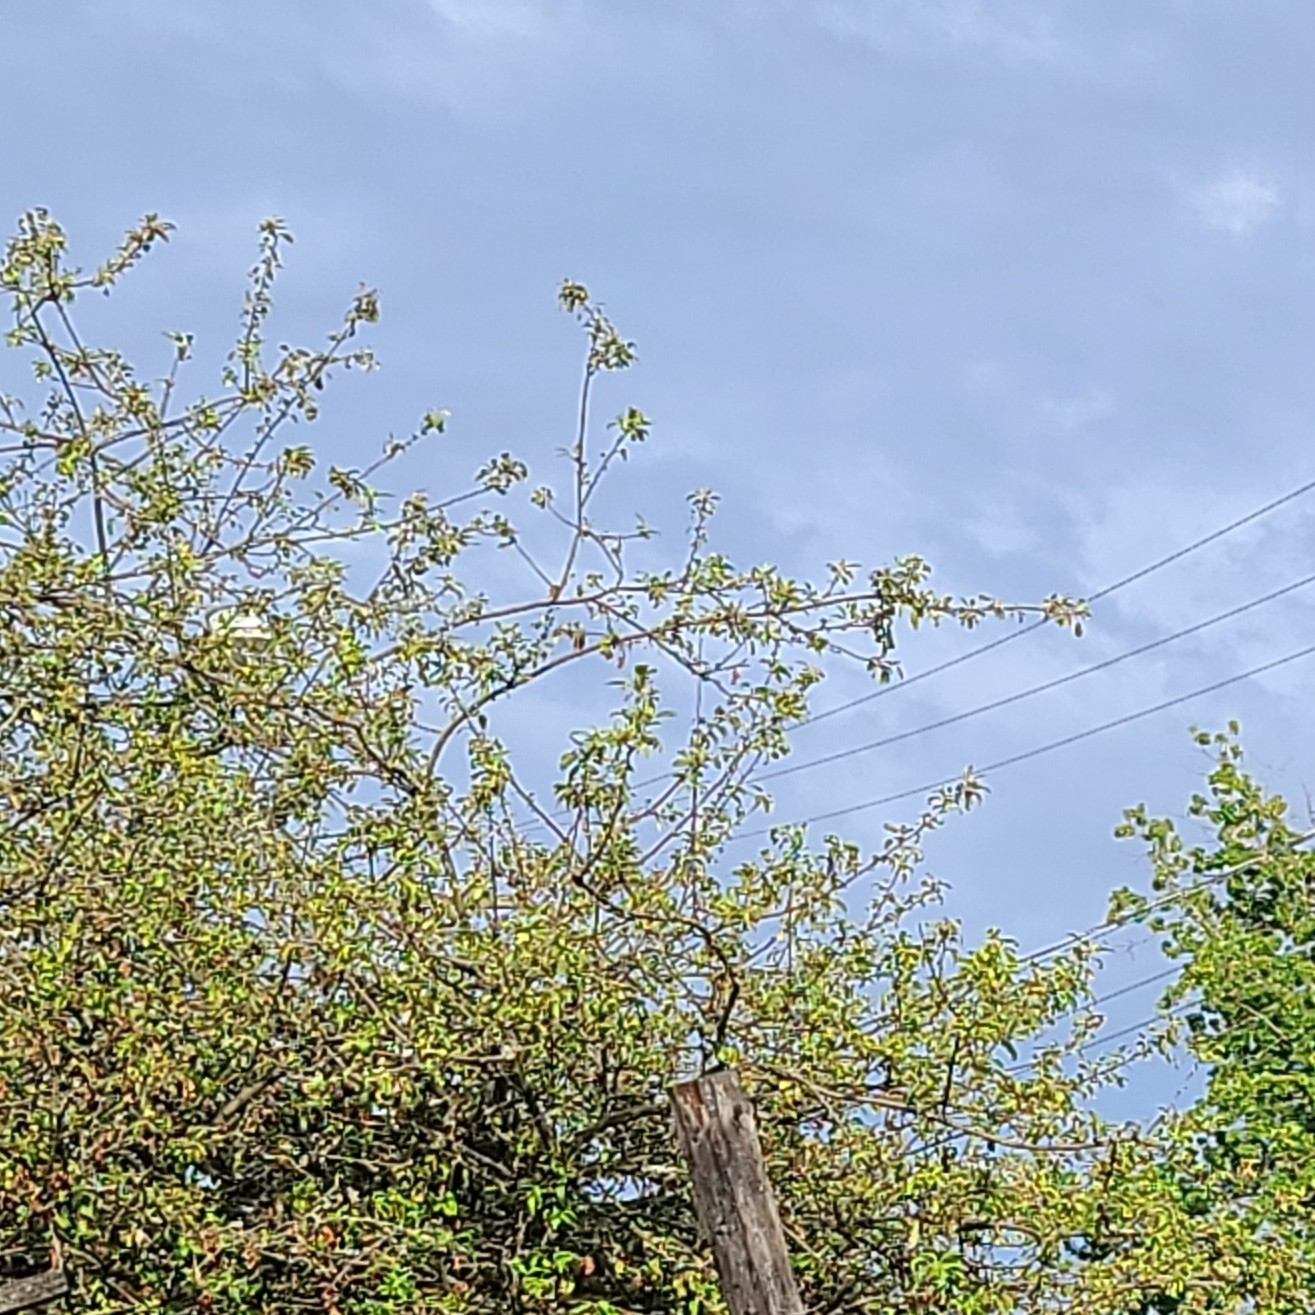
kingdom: Animalia
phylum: Chordata
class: Aves
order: Passeriformes
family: Aegithalidae
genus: Psaltriparus
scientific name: Psaltriparus minimus
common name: American bushtit
